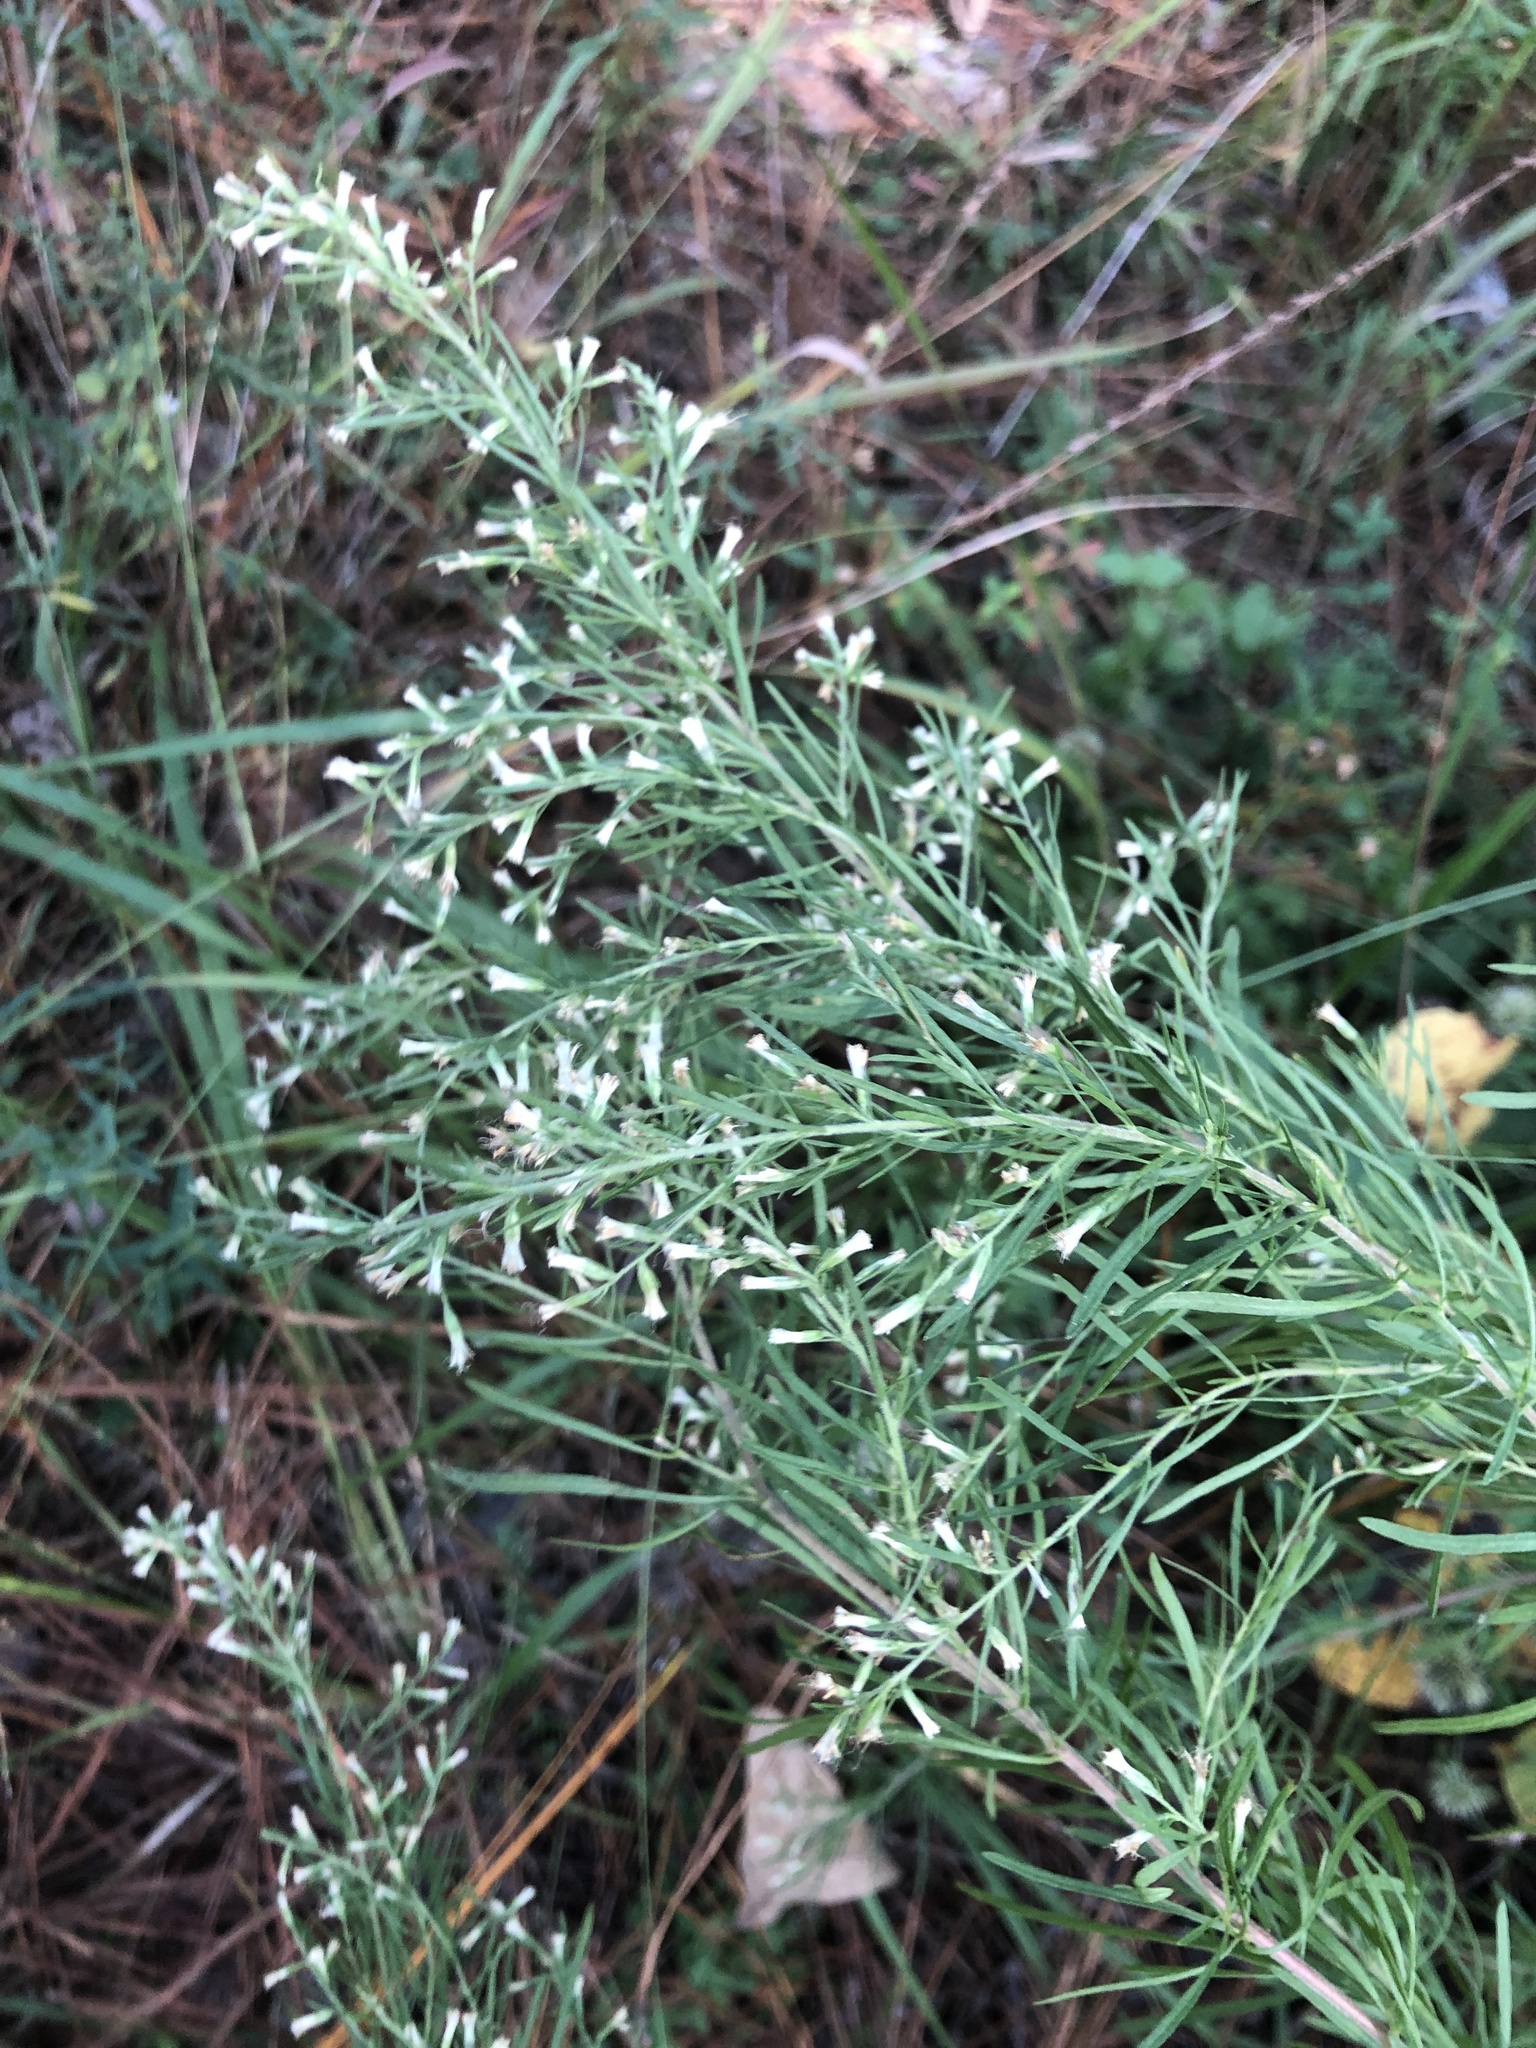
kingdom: Plantae
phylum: Tracheophyta
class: Magnoliopsida
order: Asterales
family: Asteraceae
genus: Eupatorium
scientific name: Eupatorium compositifolium
